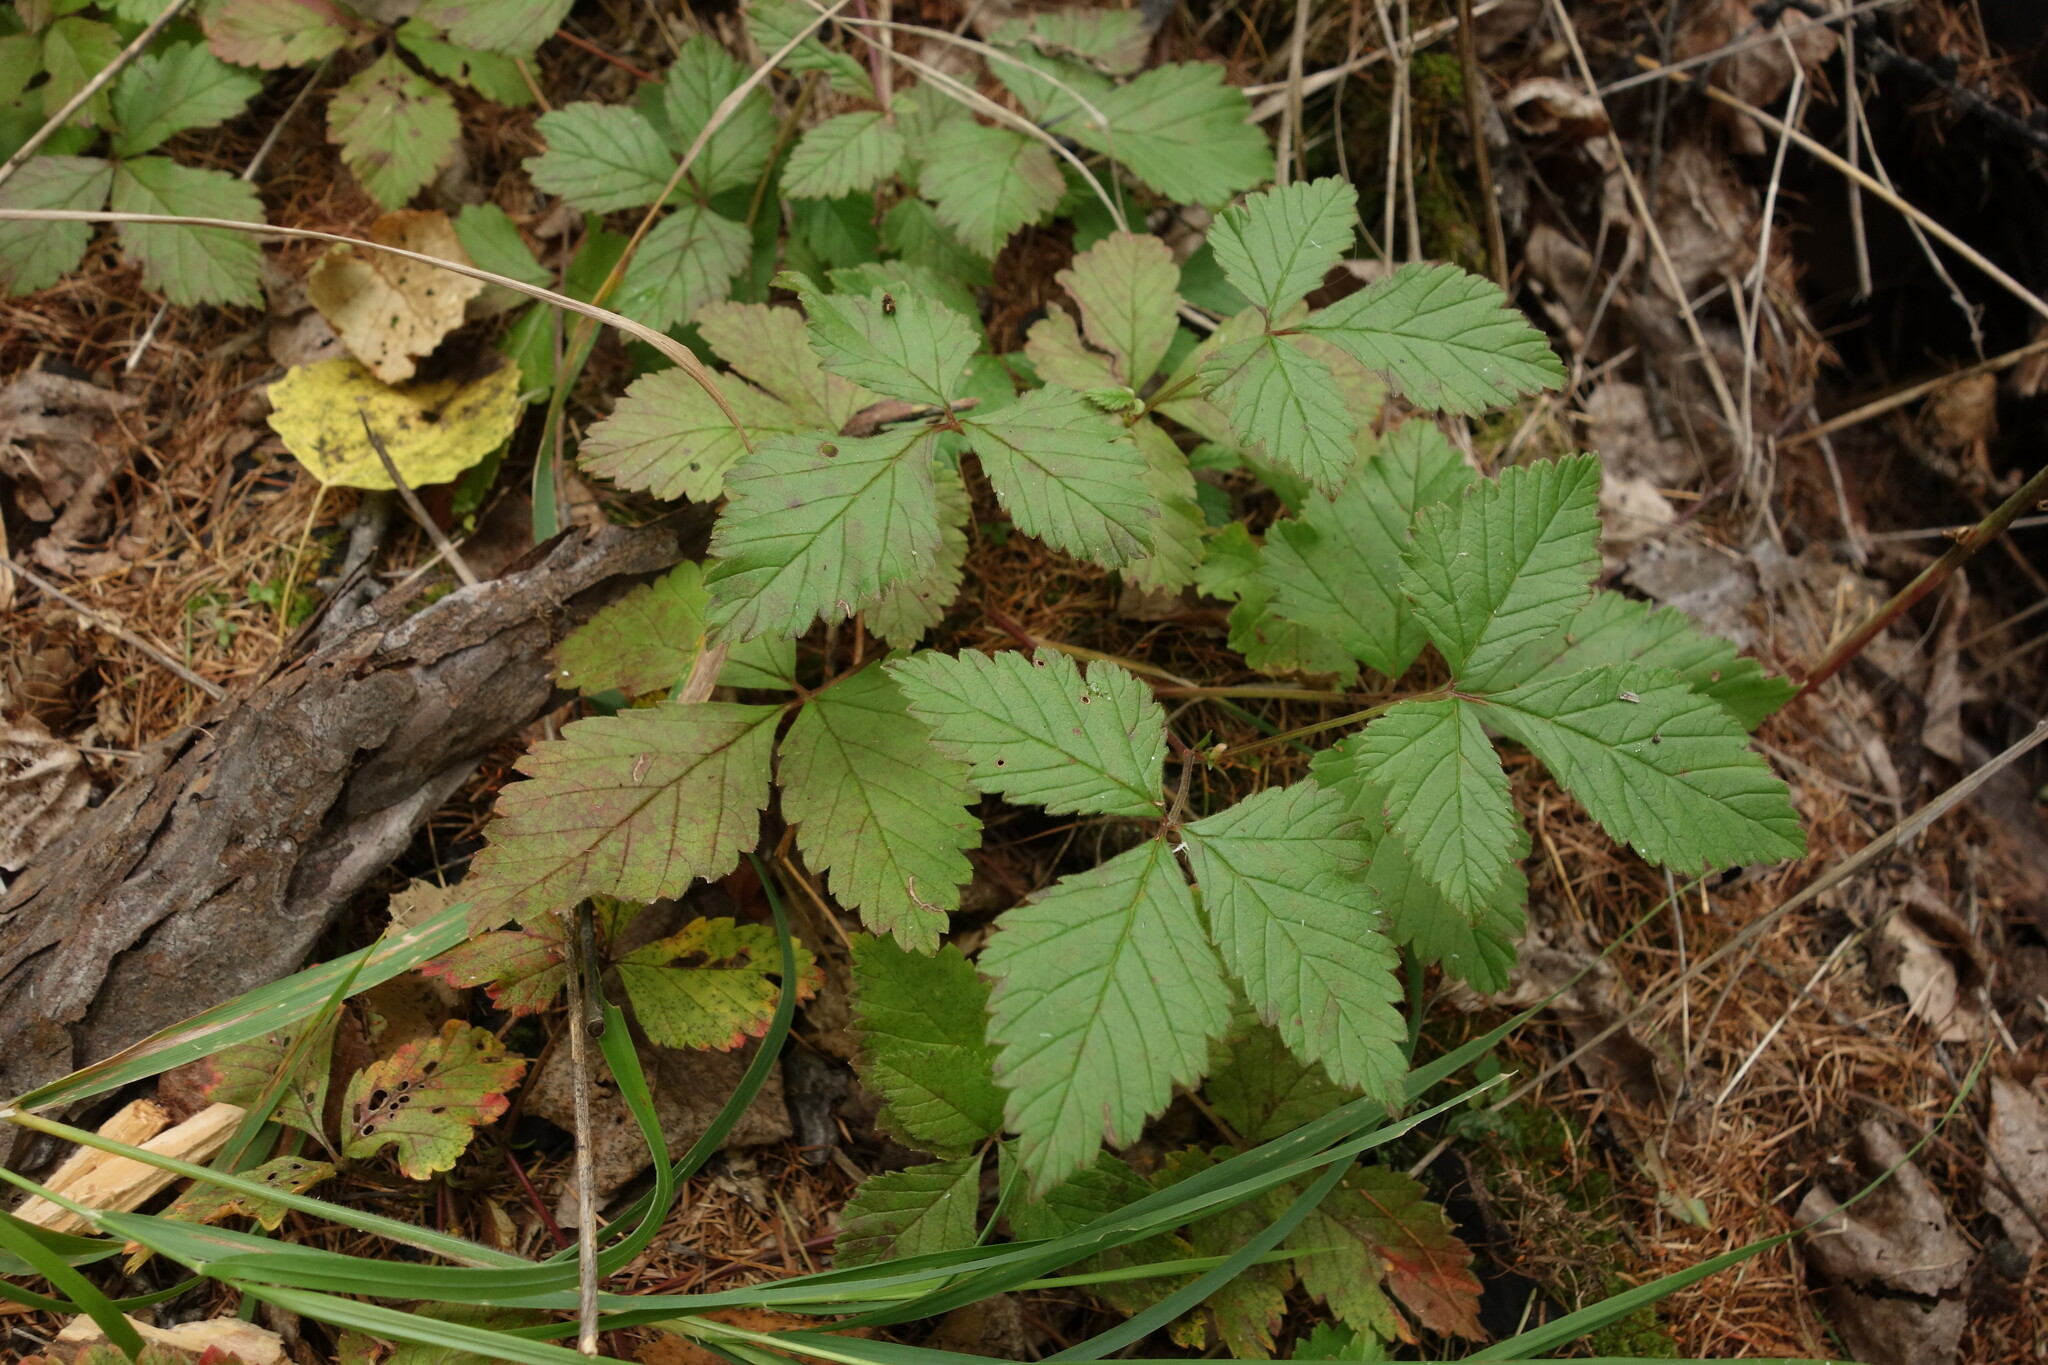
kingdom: Plantae
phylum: Tracheophyta
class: Magnoliopsida
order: Rosales
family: Rosaceae
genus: Rubus
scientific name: Rubus arcticus
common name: Arctic bramble
